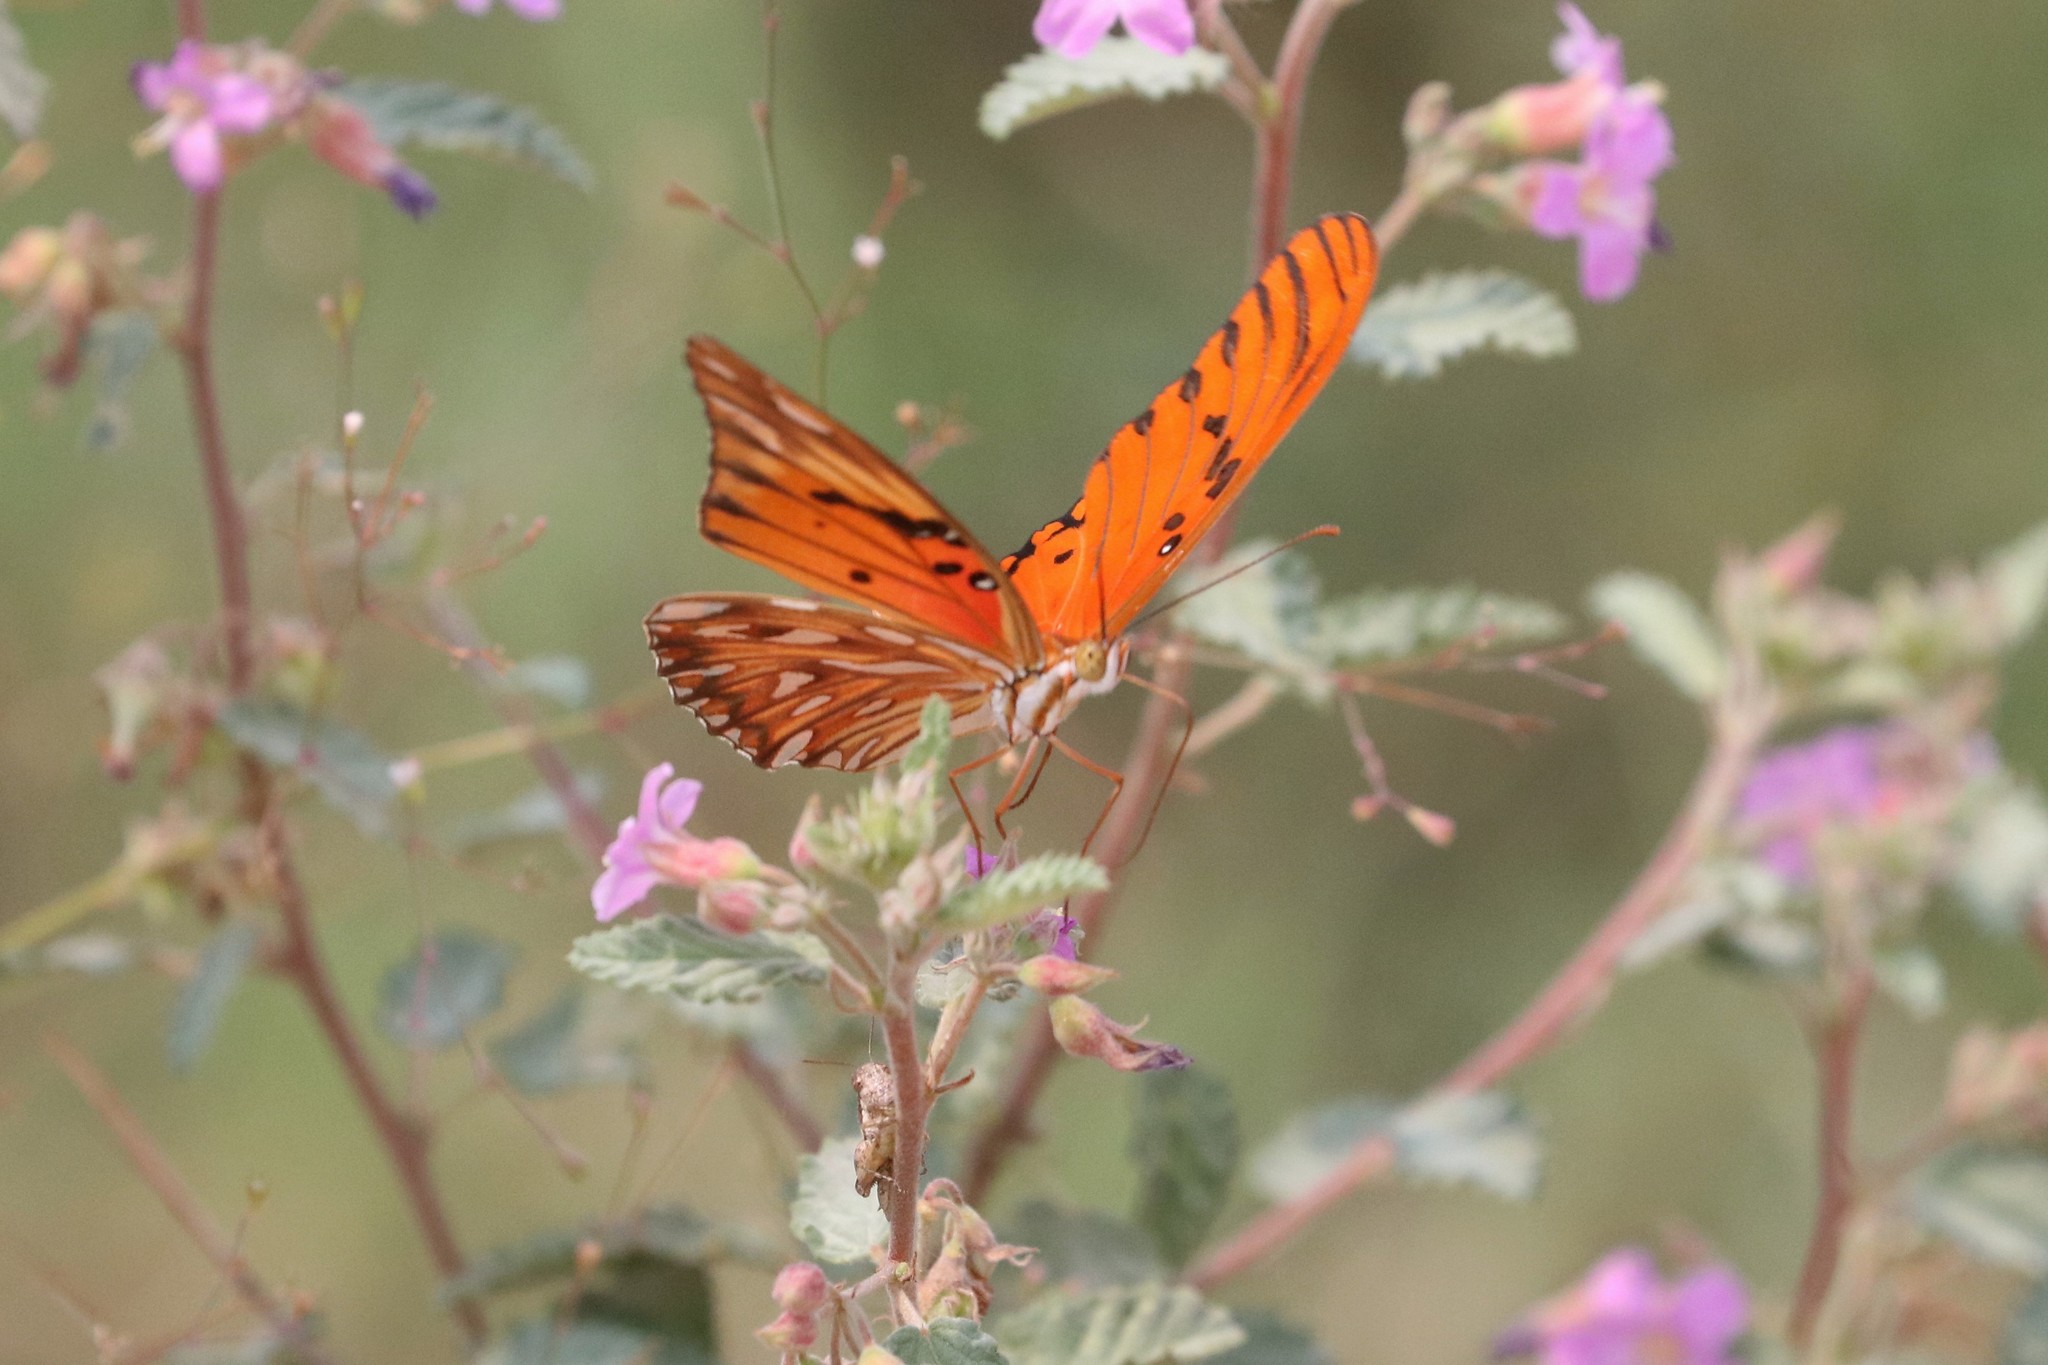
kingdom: Animalia
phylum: Arthropoda
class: Insecta
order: Lepidoptera
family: Nymphalidae
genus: Dione
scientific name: Dione vanillae
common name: Gulf fritillary
